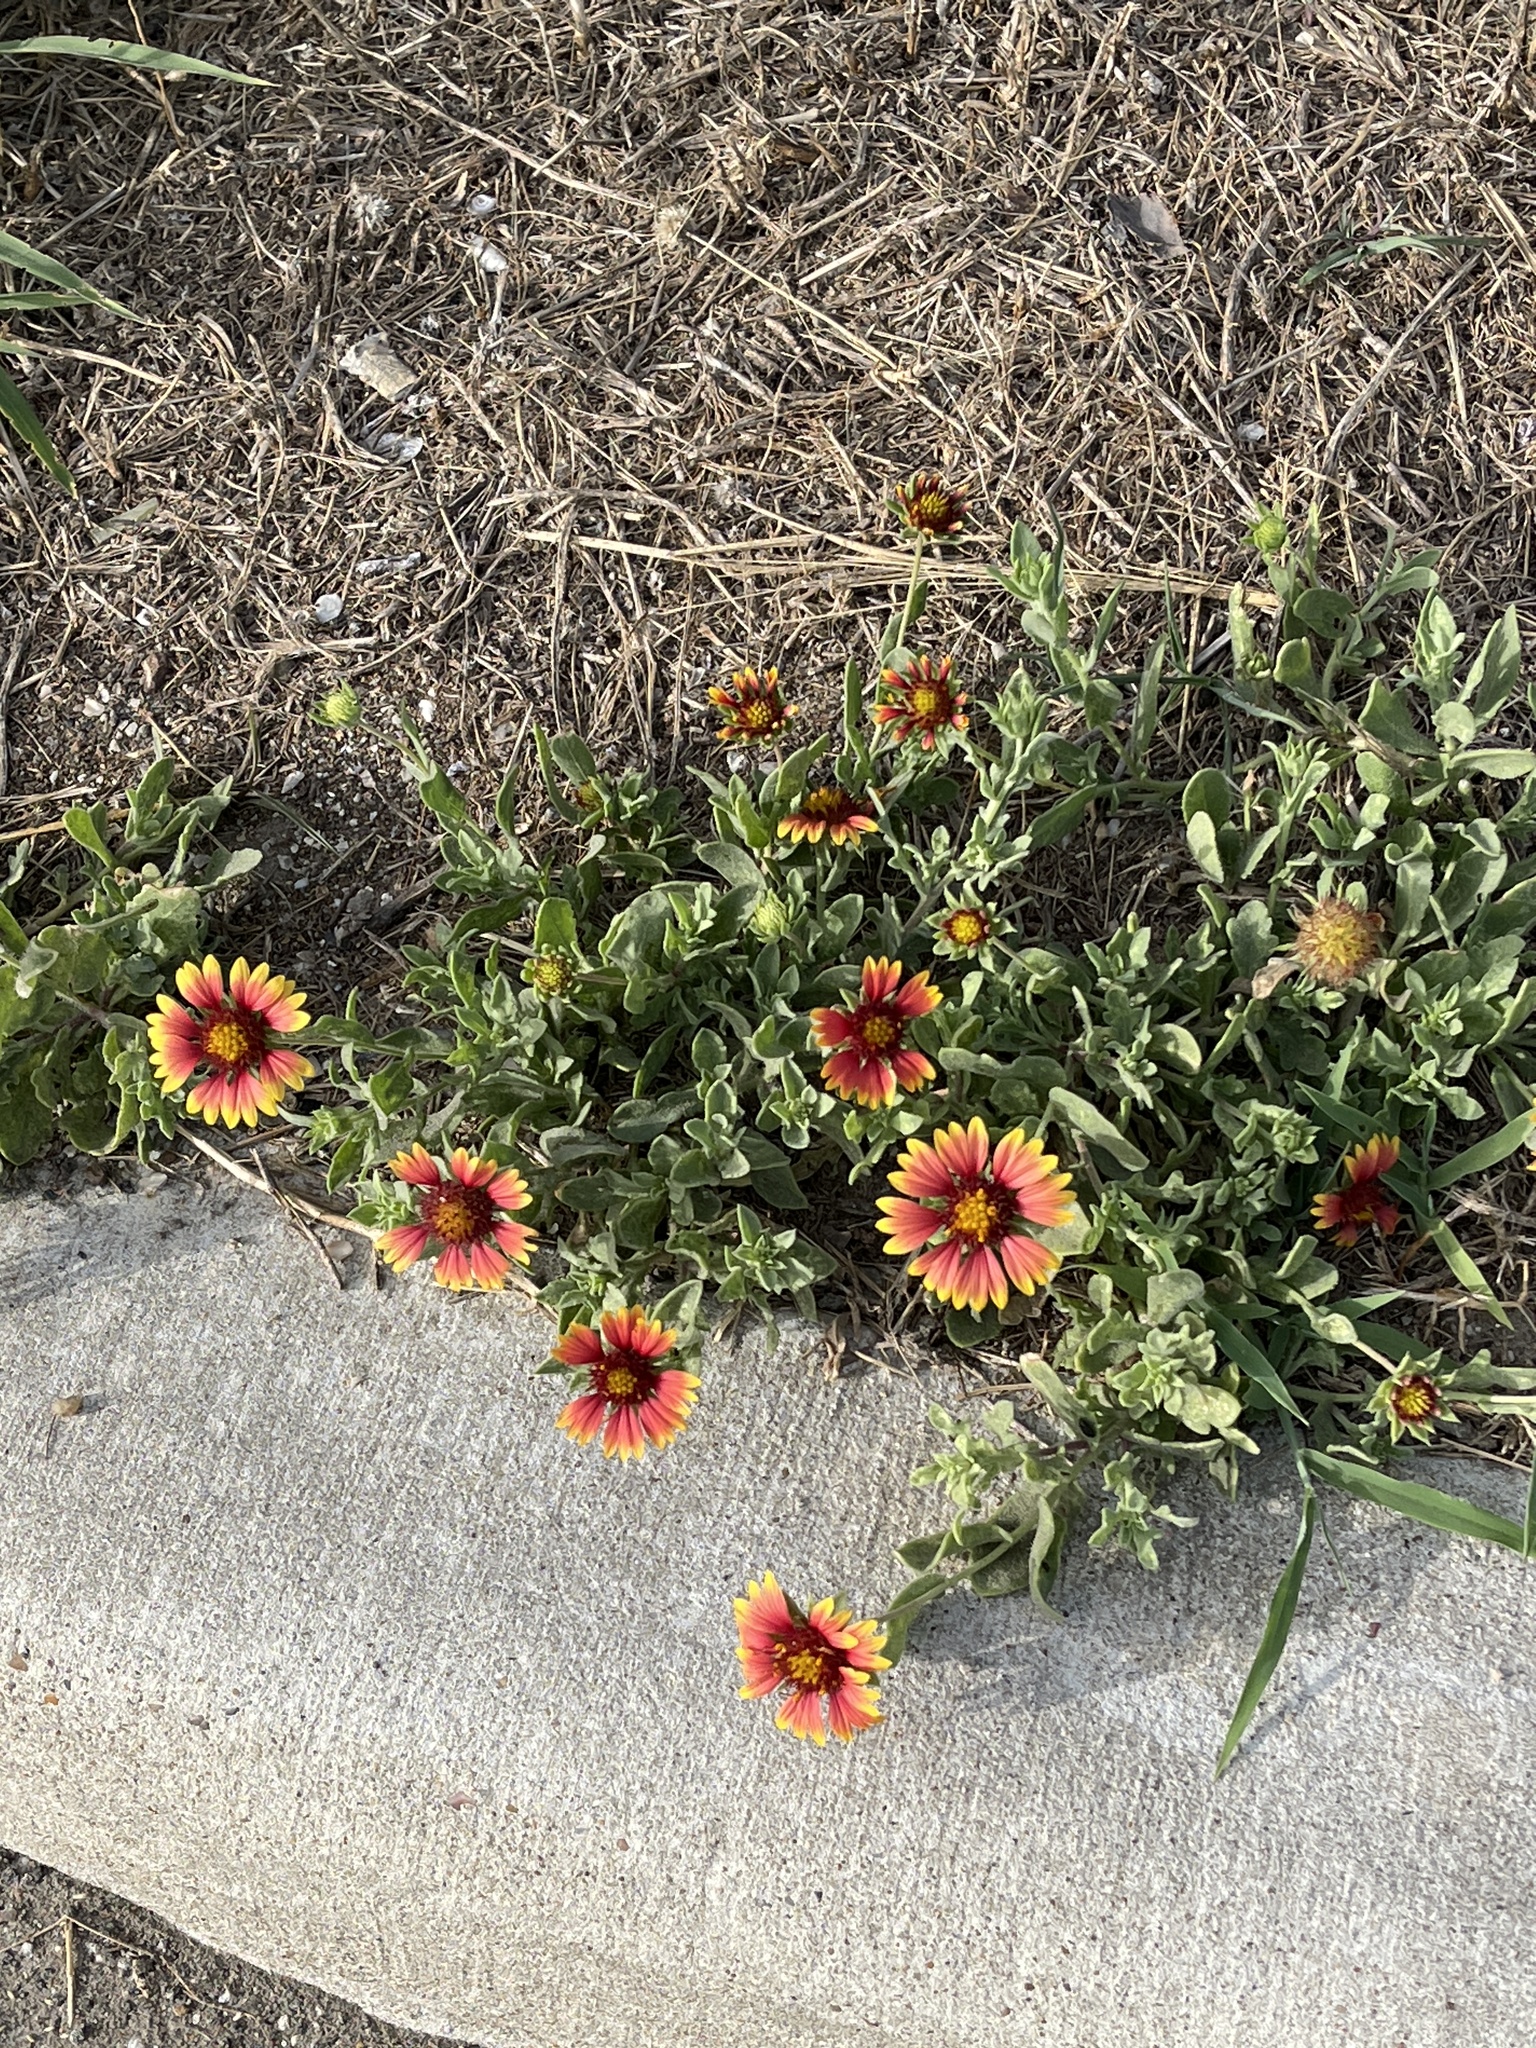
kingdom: Plantae
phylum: Tracheophyta
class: Magnoliopsida
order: Asterales
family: Asteraceae
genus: Gaillardia
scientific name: Gaillardia pulchella
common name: Firewheel
